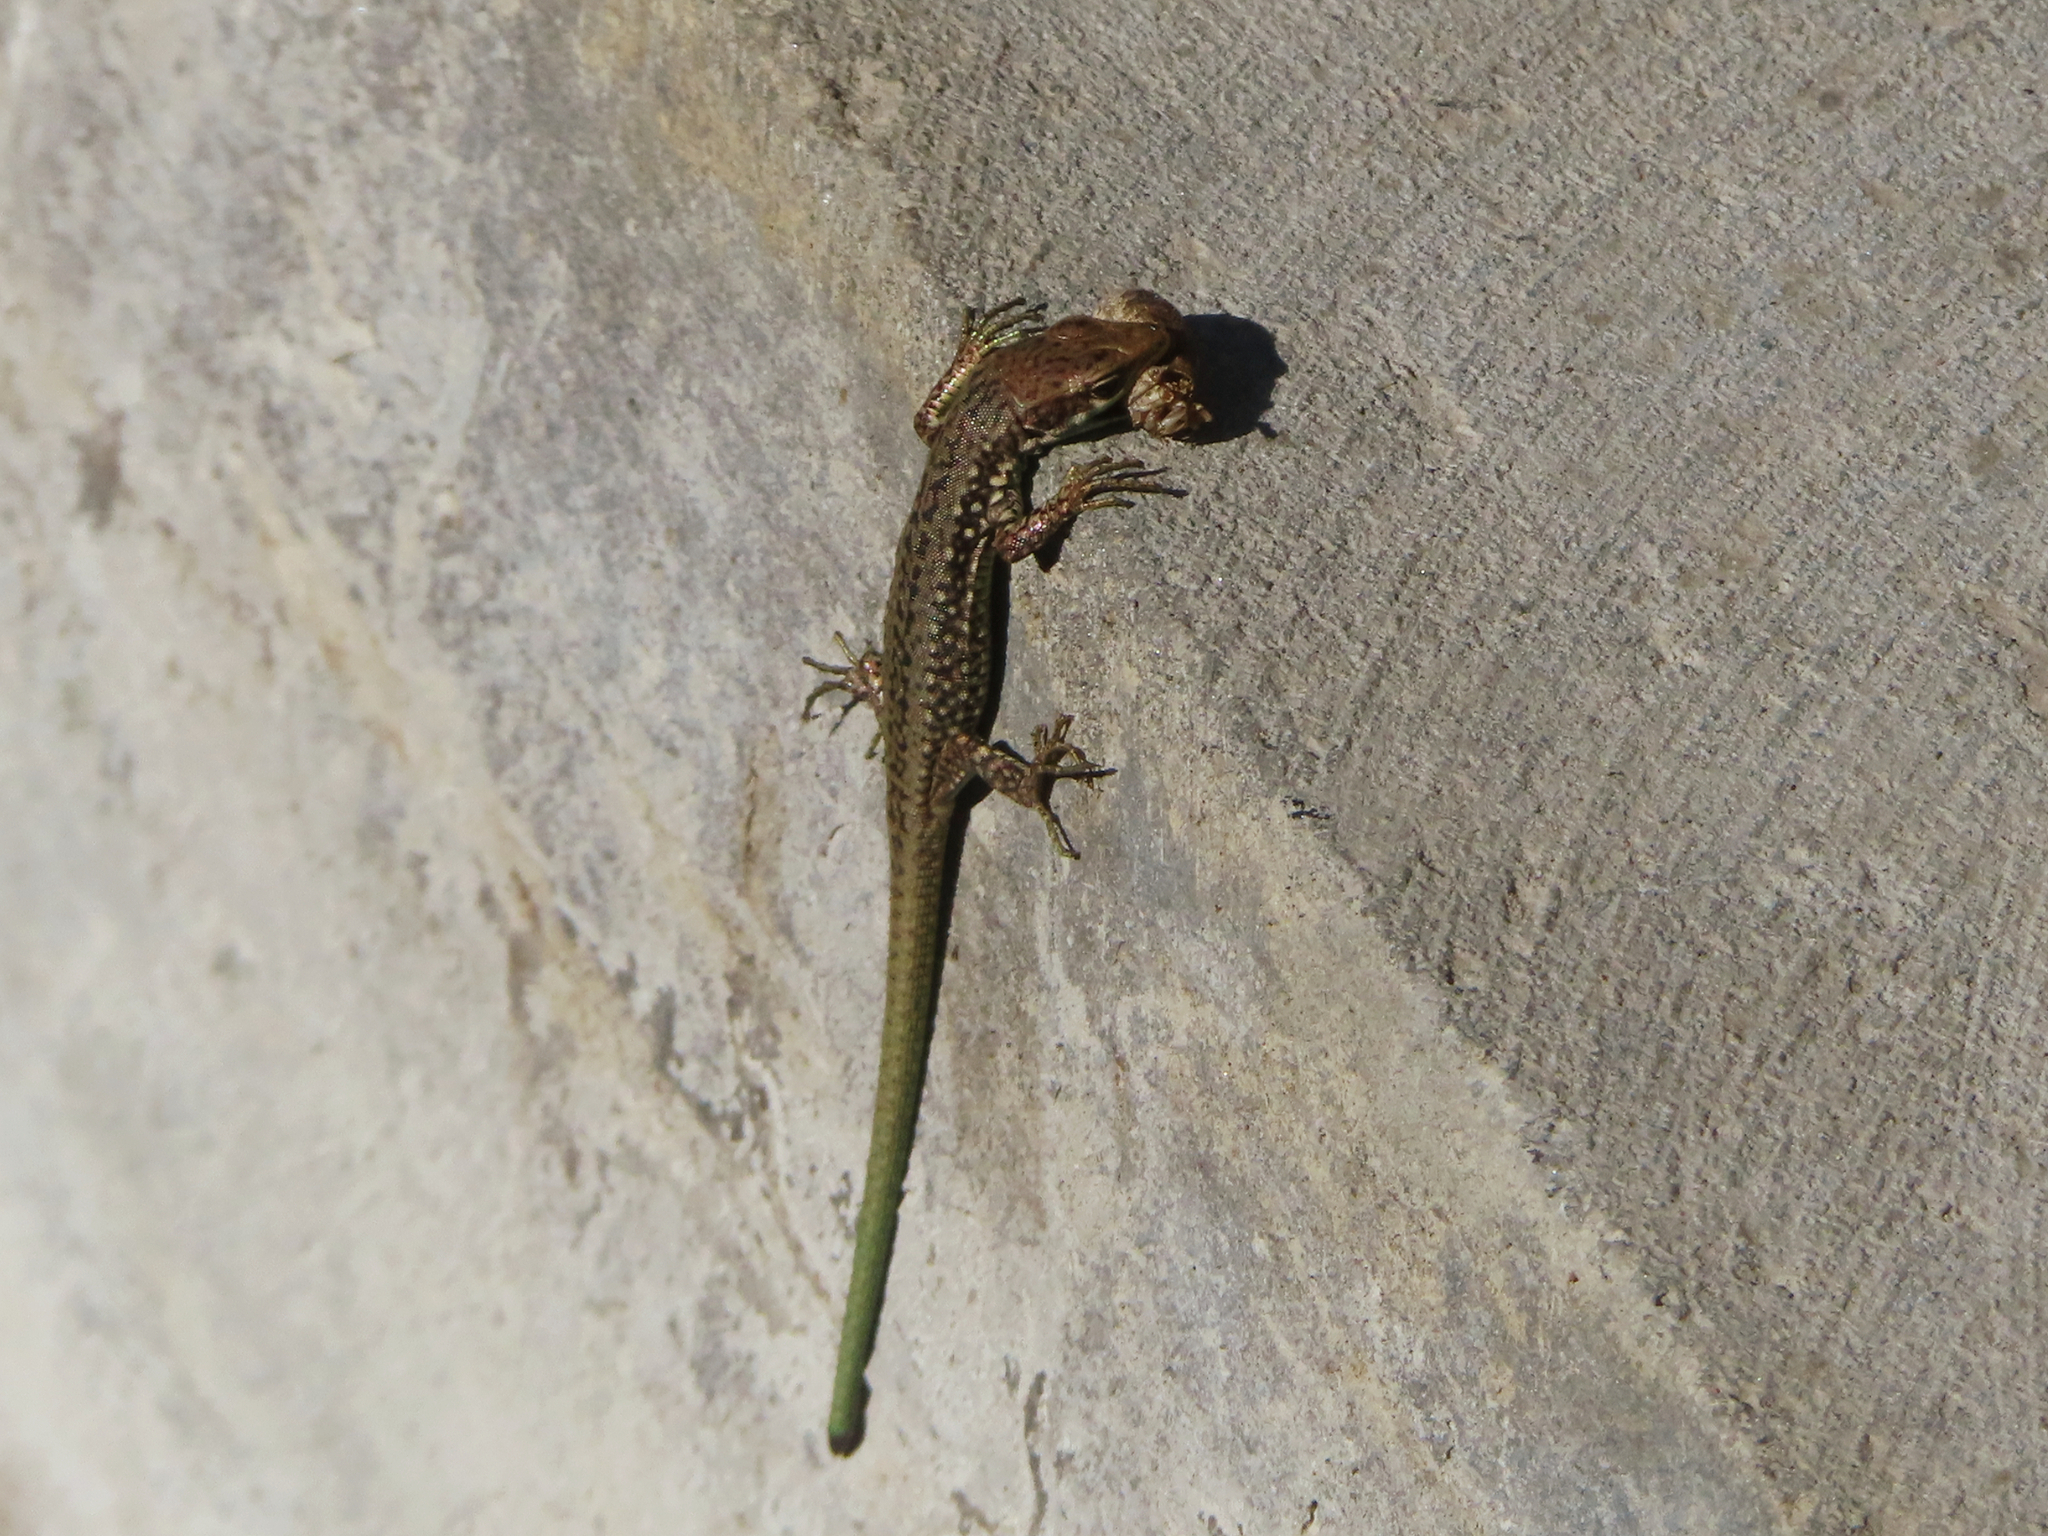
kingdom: Animalia
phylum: Chordata
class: Squamata
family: Lacertidae
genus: Darevskia
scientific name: Darevskia raddei
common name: Radde's lizard
